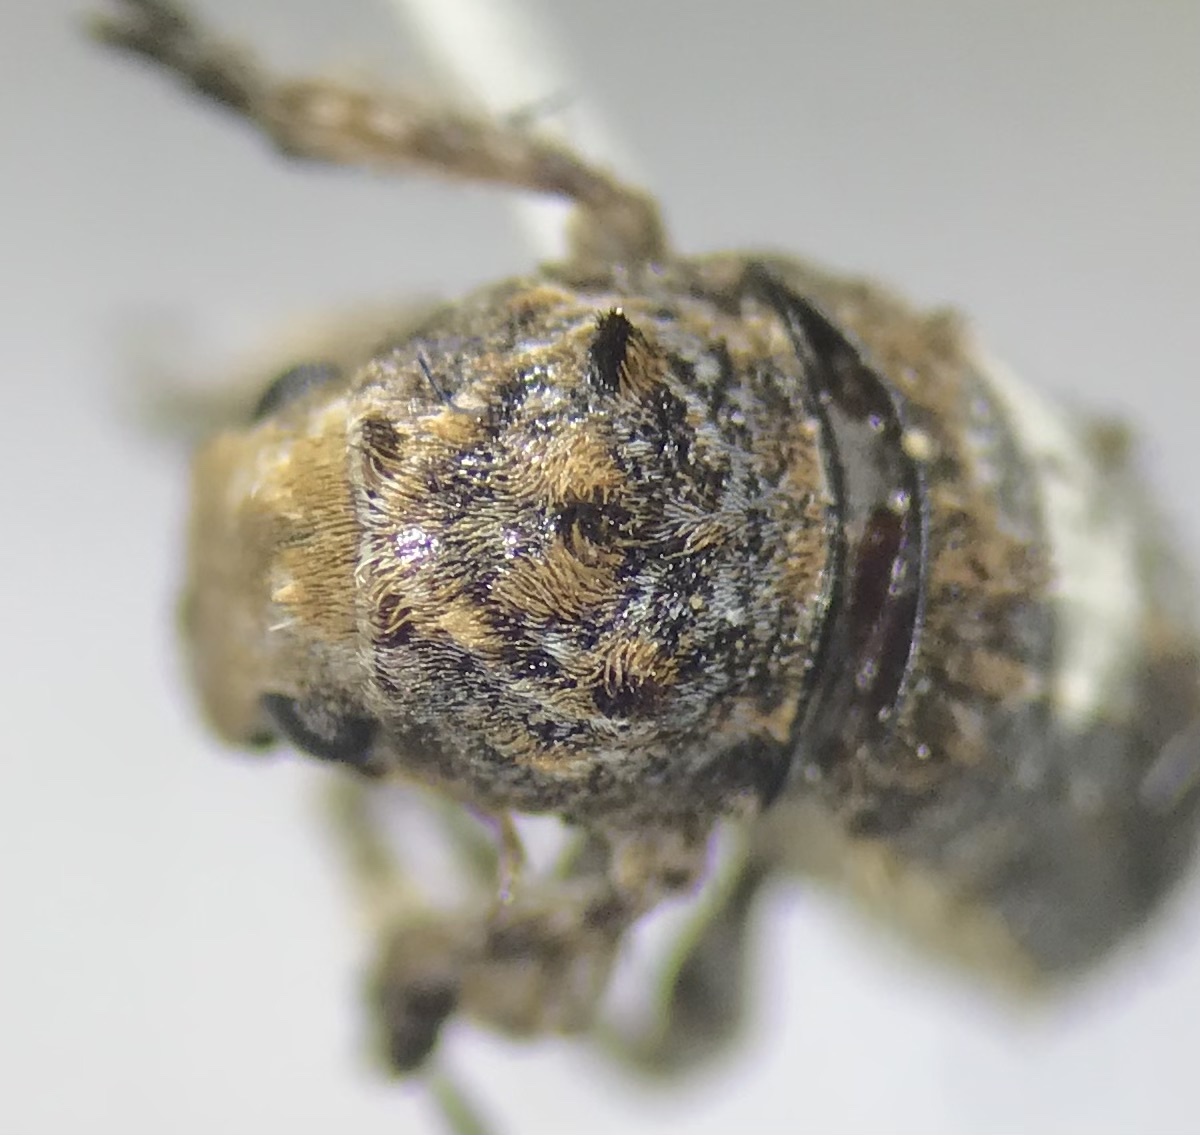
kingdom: Animalia
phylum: Arthropoda
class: Insecta
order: Coleoptera
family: Anthribidae
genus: Toxonotus
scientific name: Toxonotus cornutus
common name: Fungus weevil
